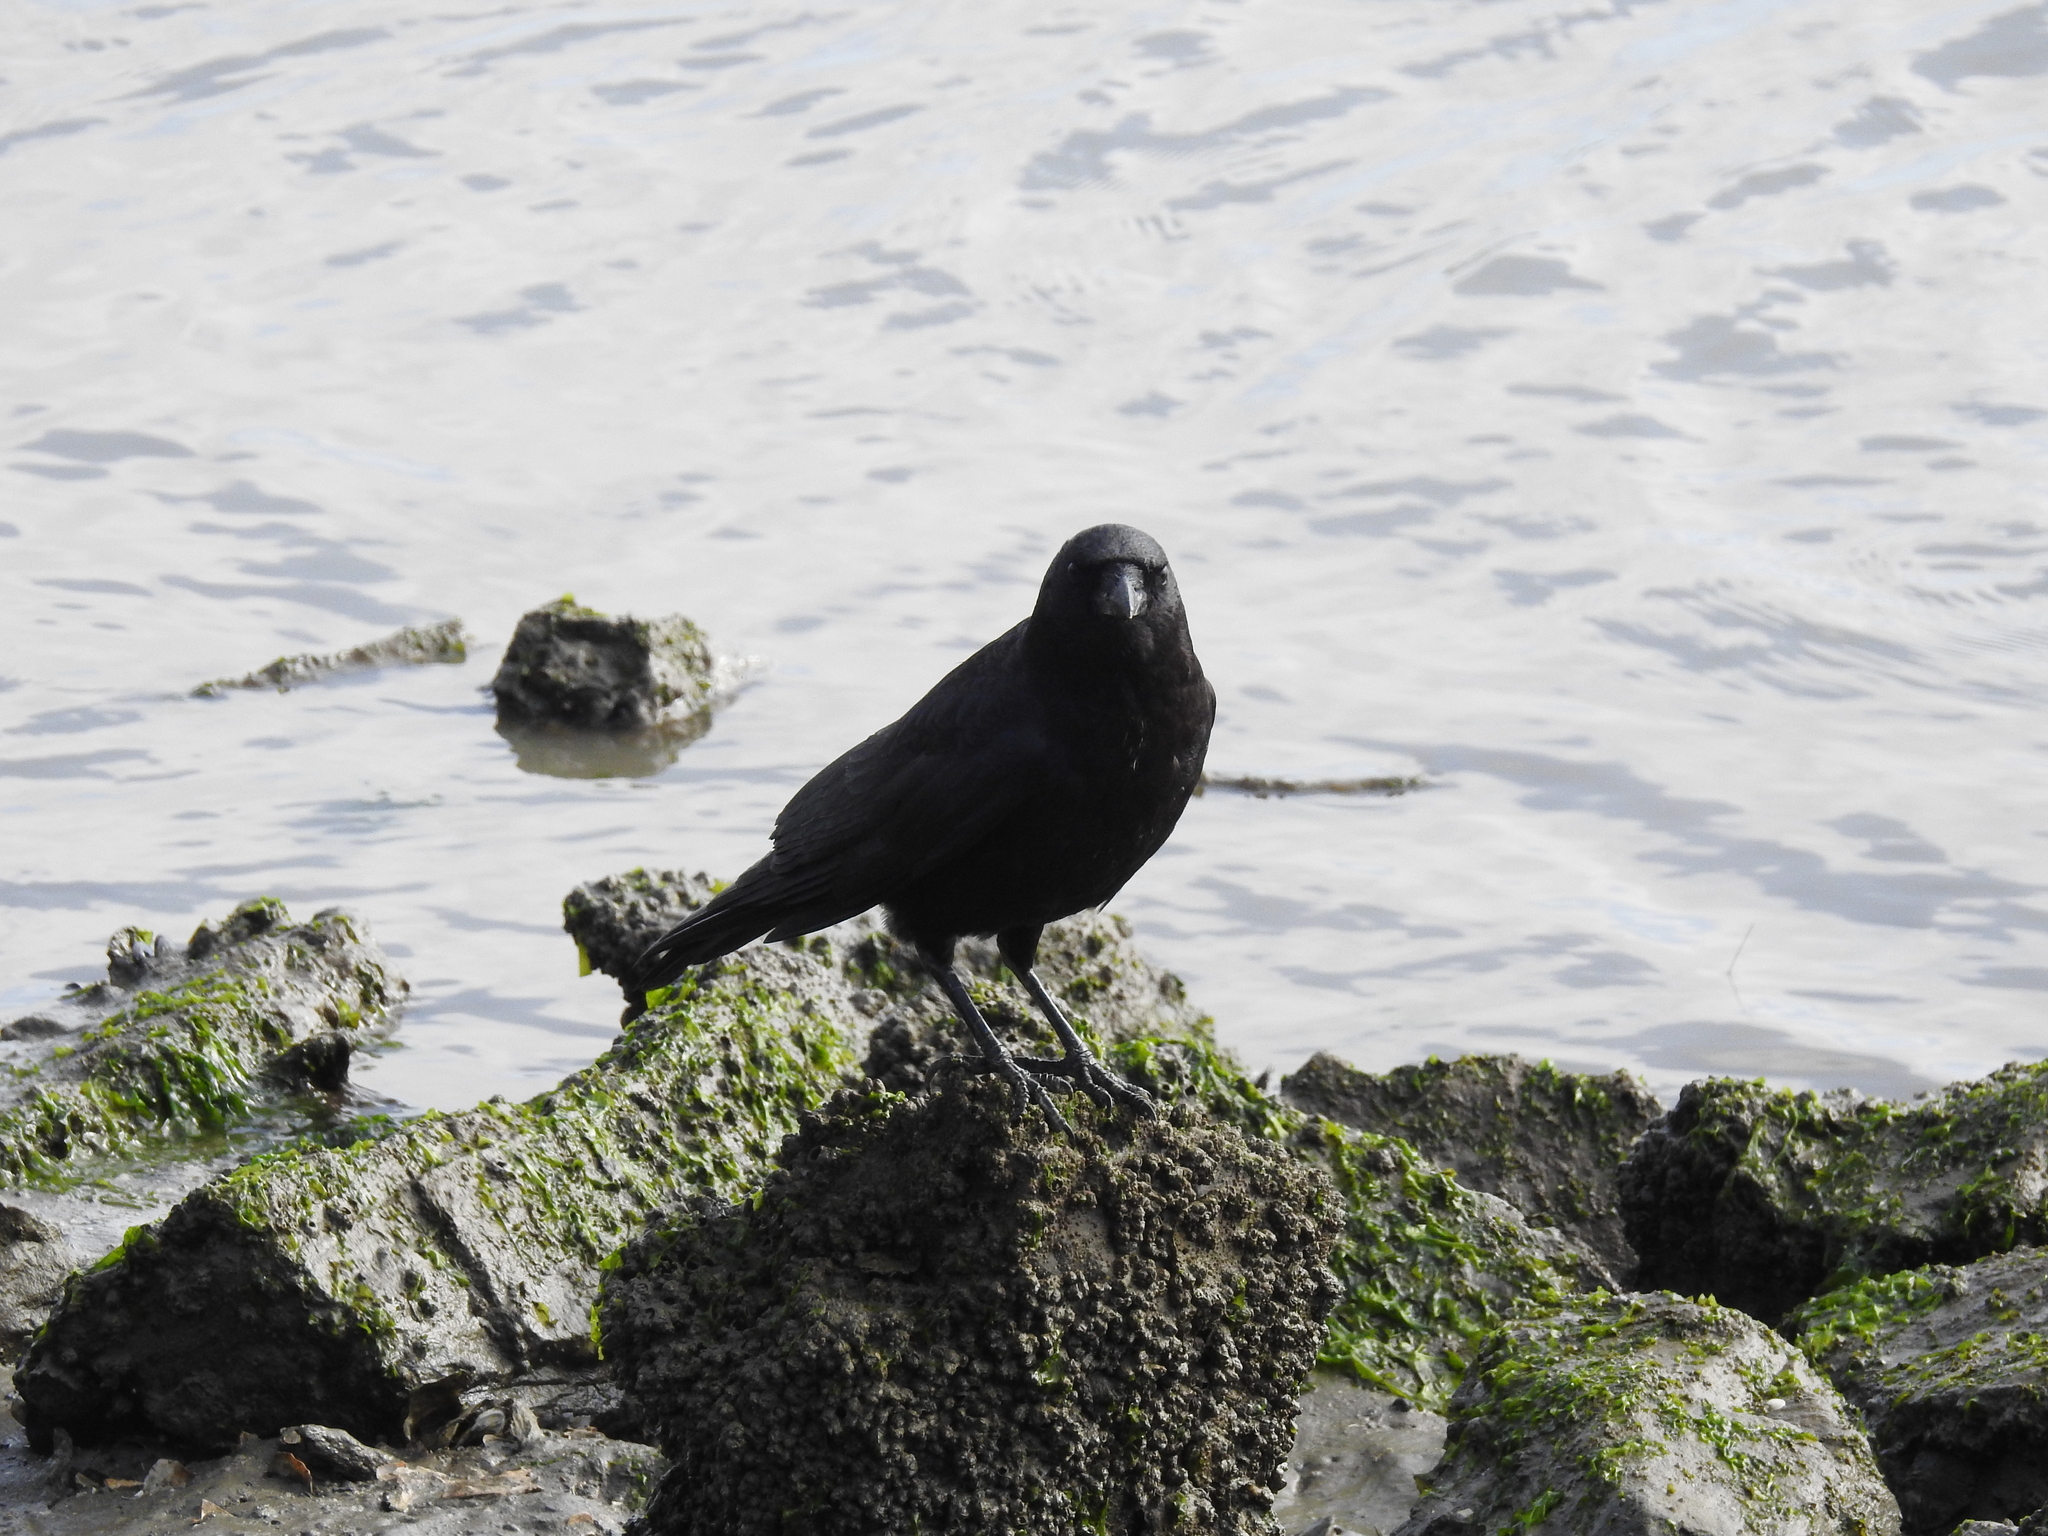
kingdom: Animalia
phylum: Chordata
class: Aves
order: Passeriformes
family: Corvidae
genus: Corvus
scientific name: Corvus brachyrhynchos
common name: American crow
